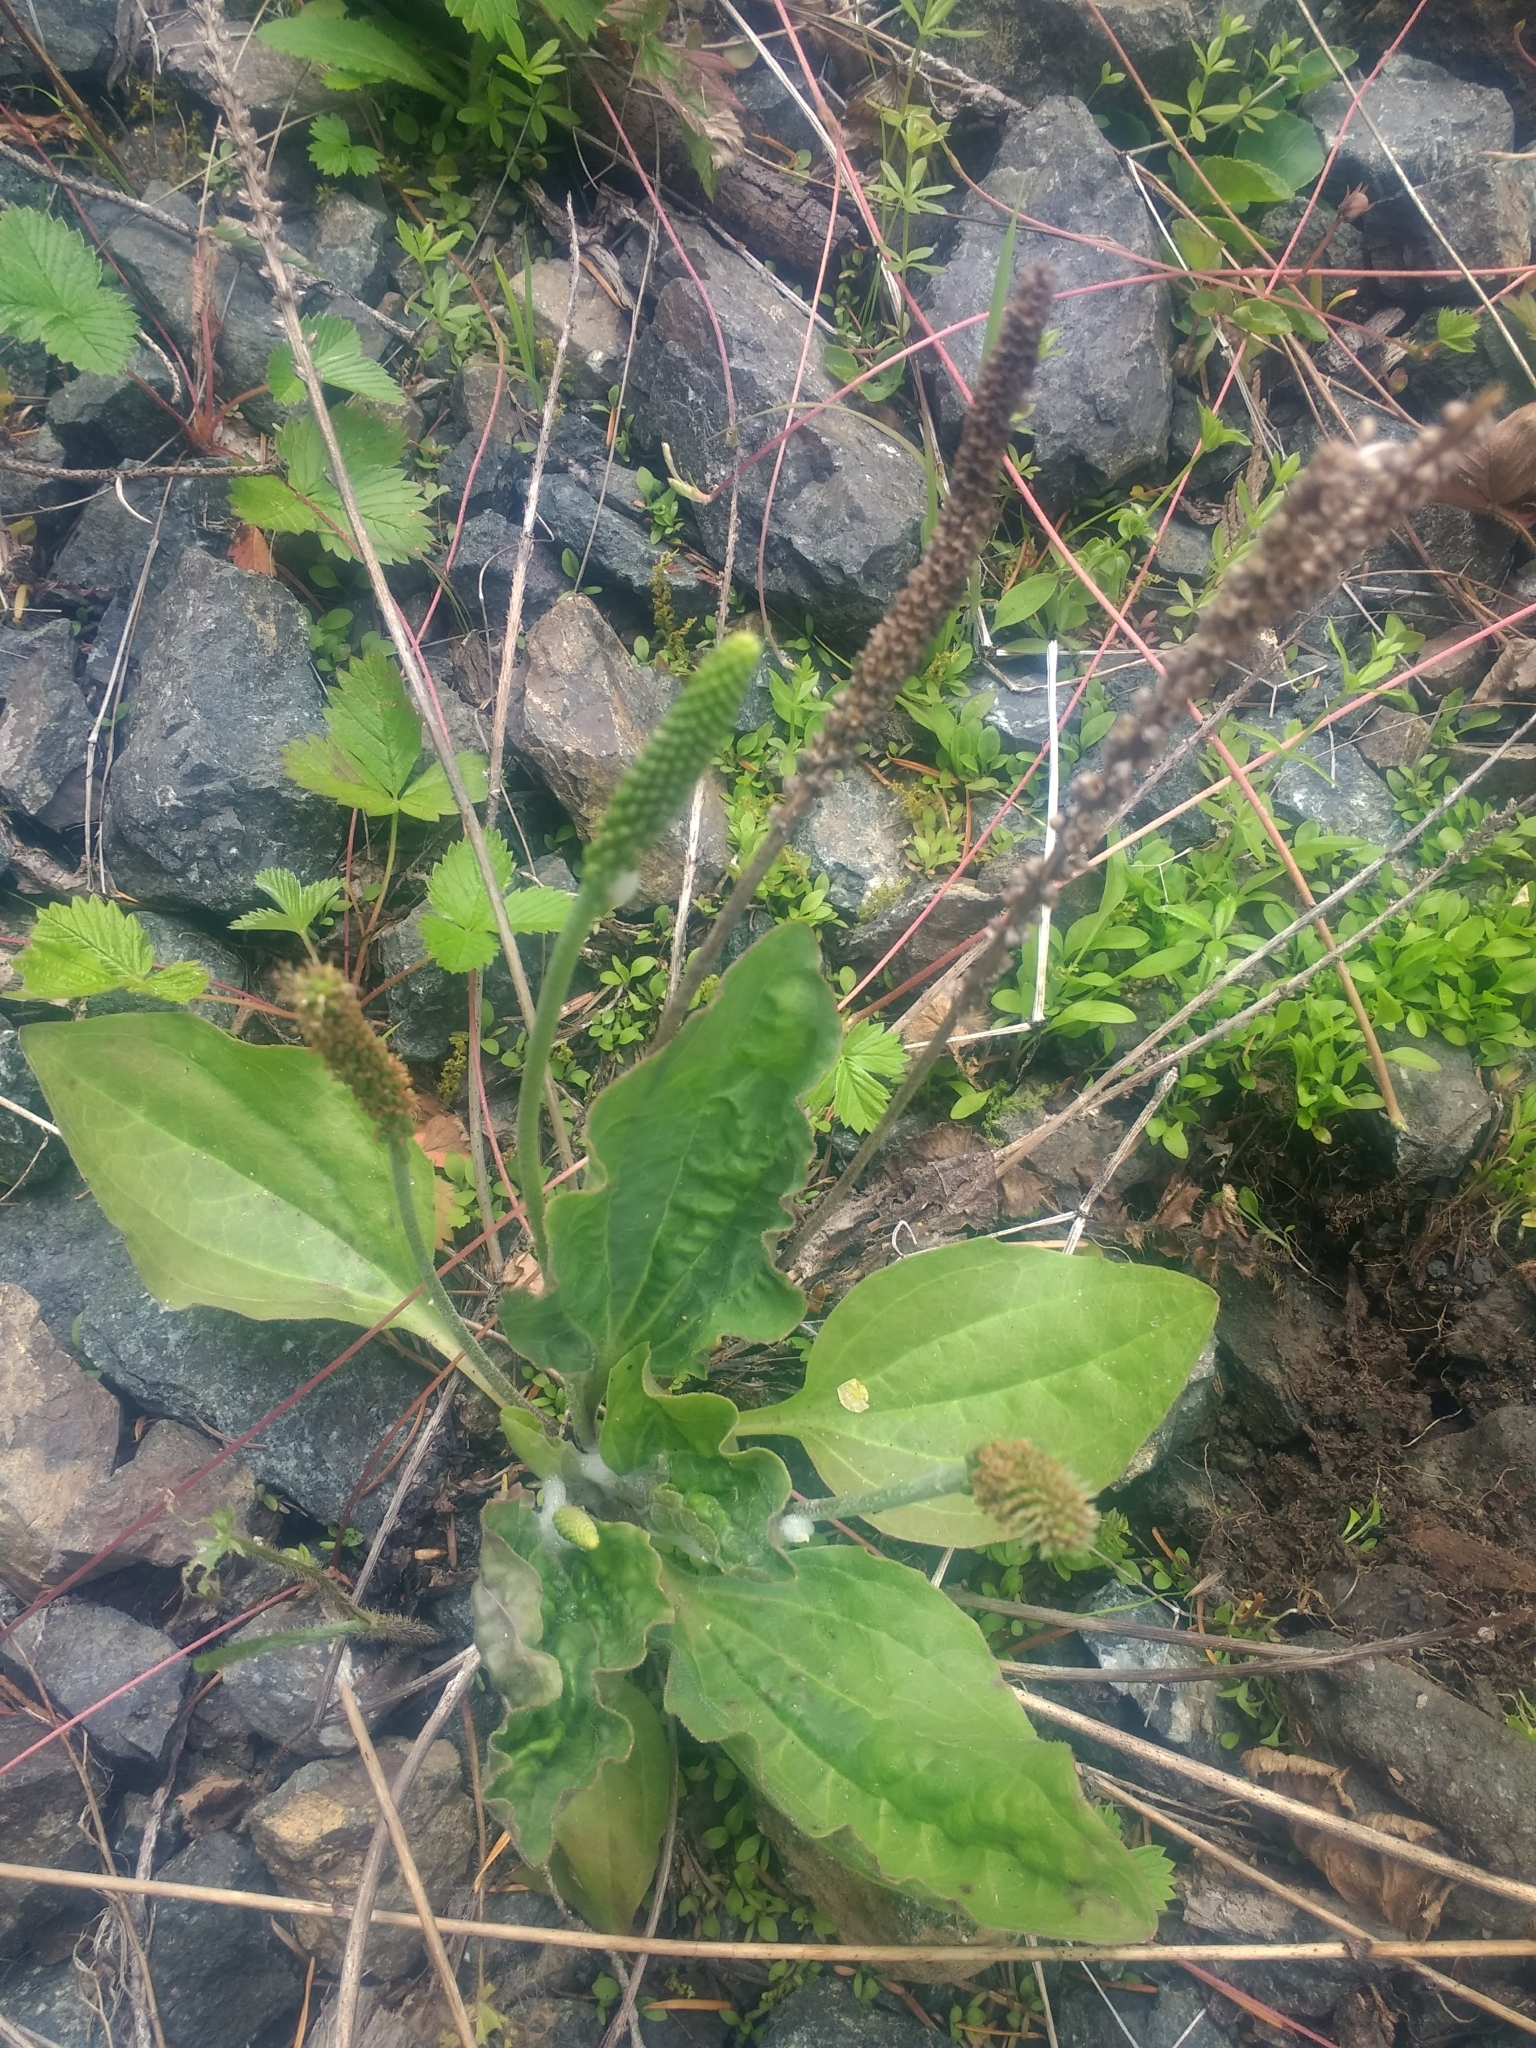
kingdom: Plantae
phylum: Tracheophyta
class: Magnoliopsida
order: Lamiales
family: Plantaginaceae
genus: Plantago
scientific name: Plantago major
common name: Common plantain
